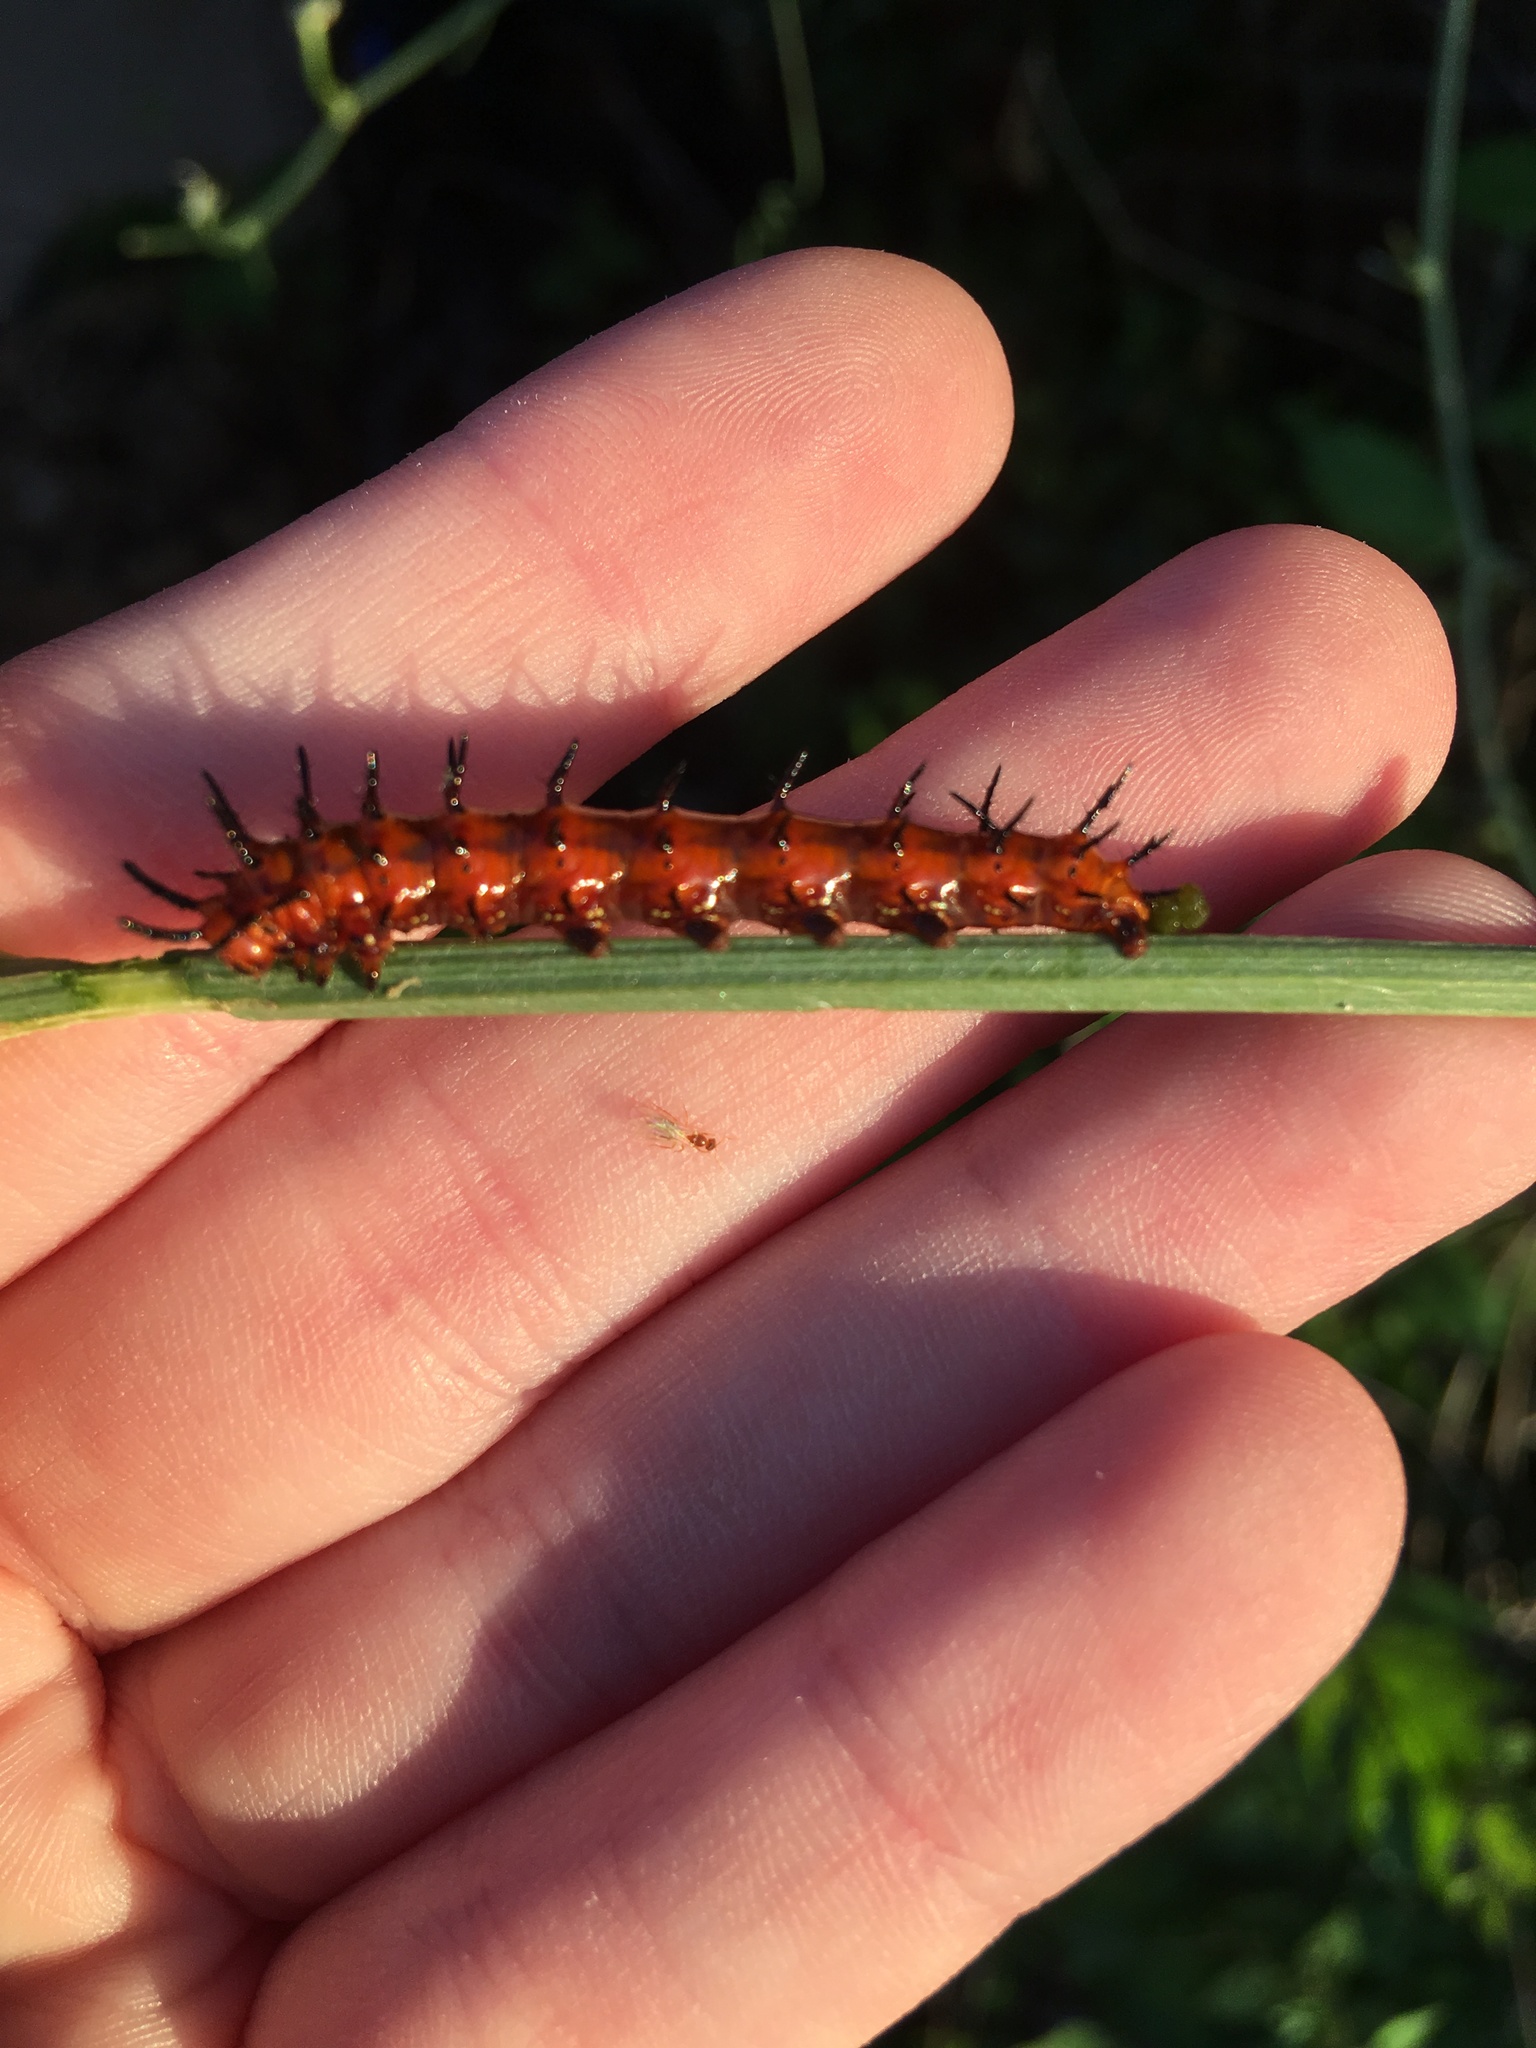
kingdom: Animalia
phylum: Arthropoda
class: Insecta
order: Lepidoptera
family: Nymphalidae
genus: Dione
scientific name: Dione vanillae
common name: Gulf fritillary
